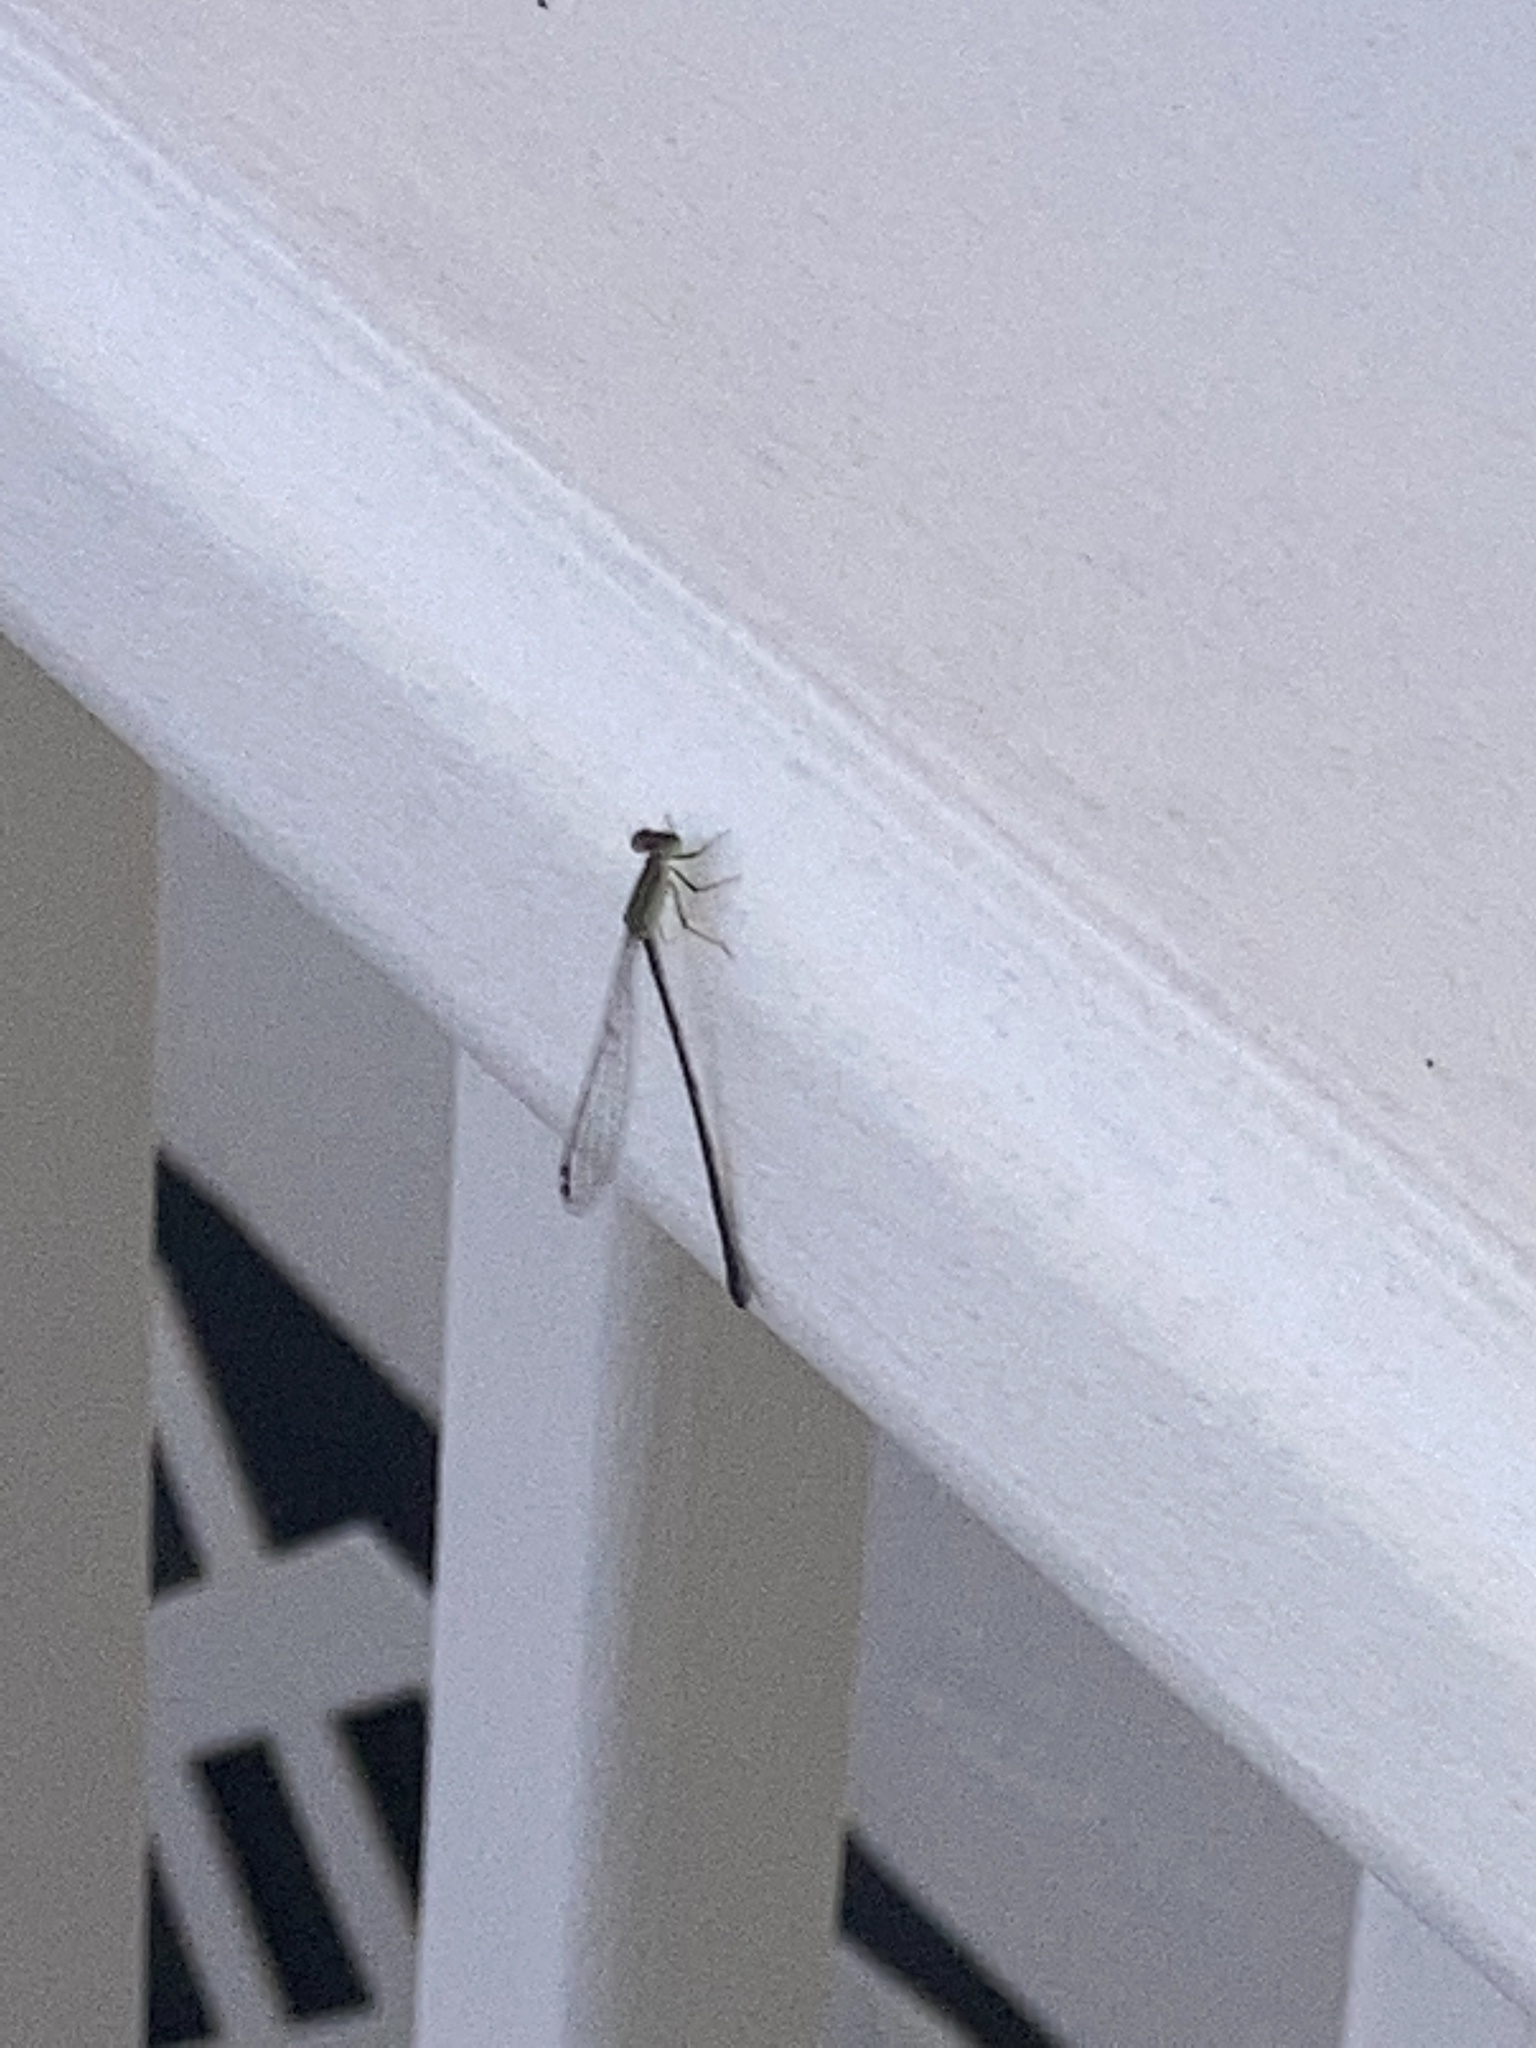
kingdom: Animalia
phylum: Arthropoda
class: Insecta
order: Odonata
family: Coenagrionidae
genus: Ischnura
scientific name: Ischnura hastata
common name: Citrine forktail
